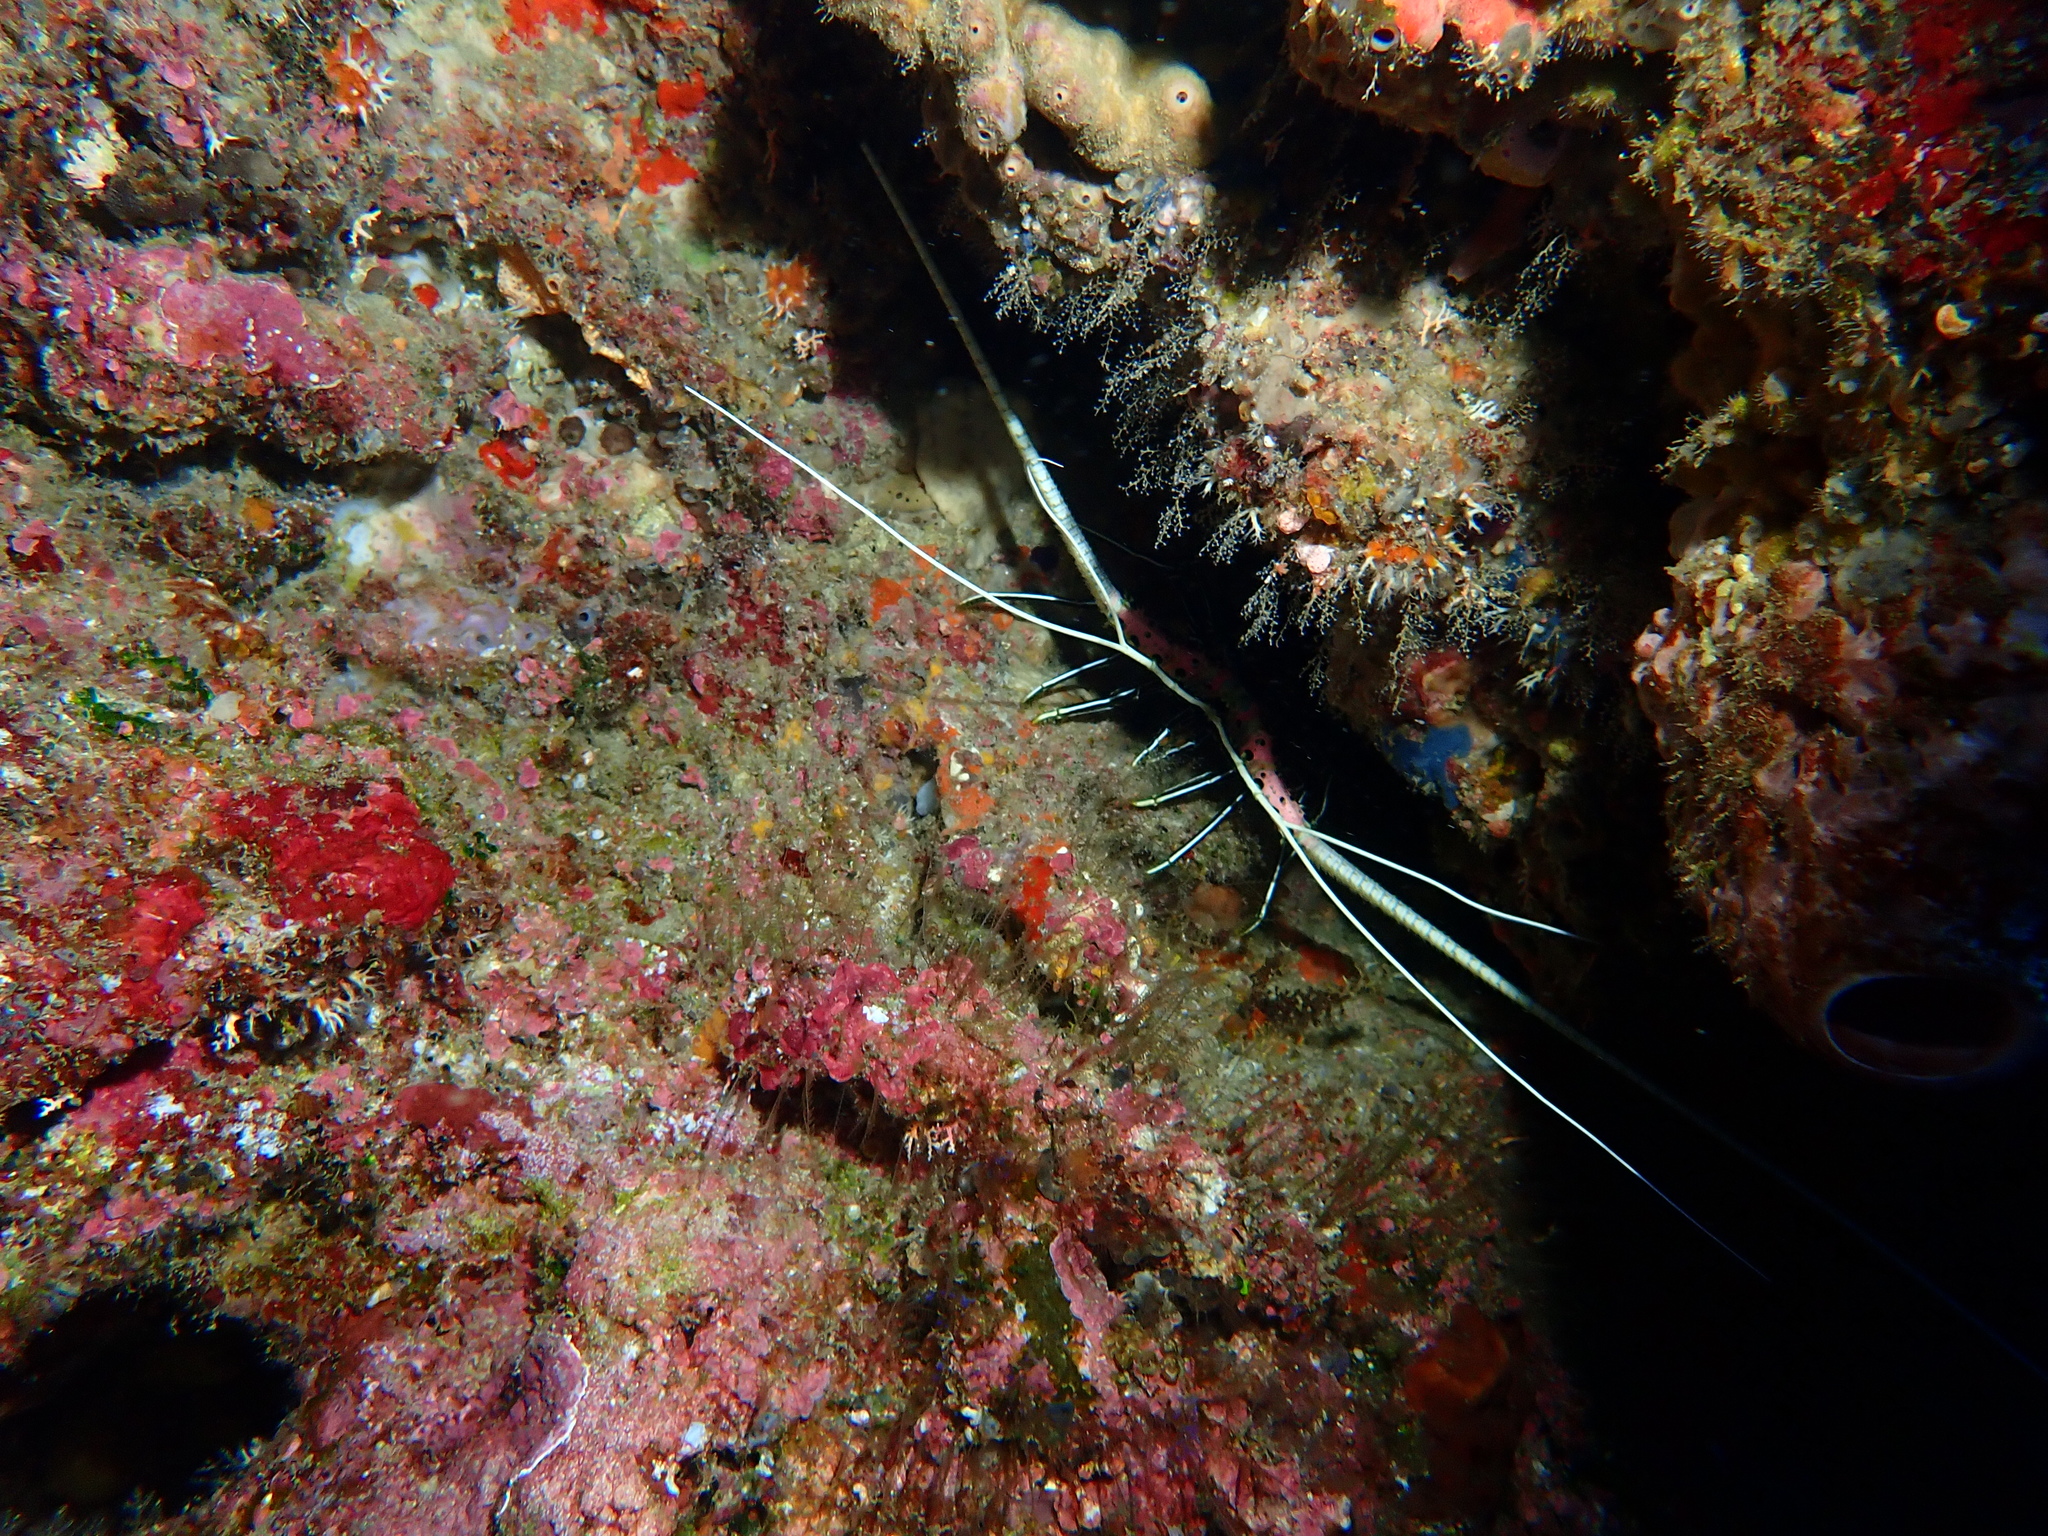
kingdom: Animalia
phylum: Arthropoda
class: Malacostraca
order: Decapoda
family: Palinuridae
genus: Panulirus
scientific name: Panulirus versicolor
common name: Painted spiny lobster
